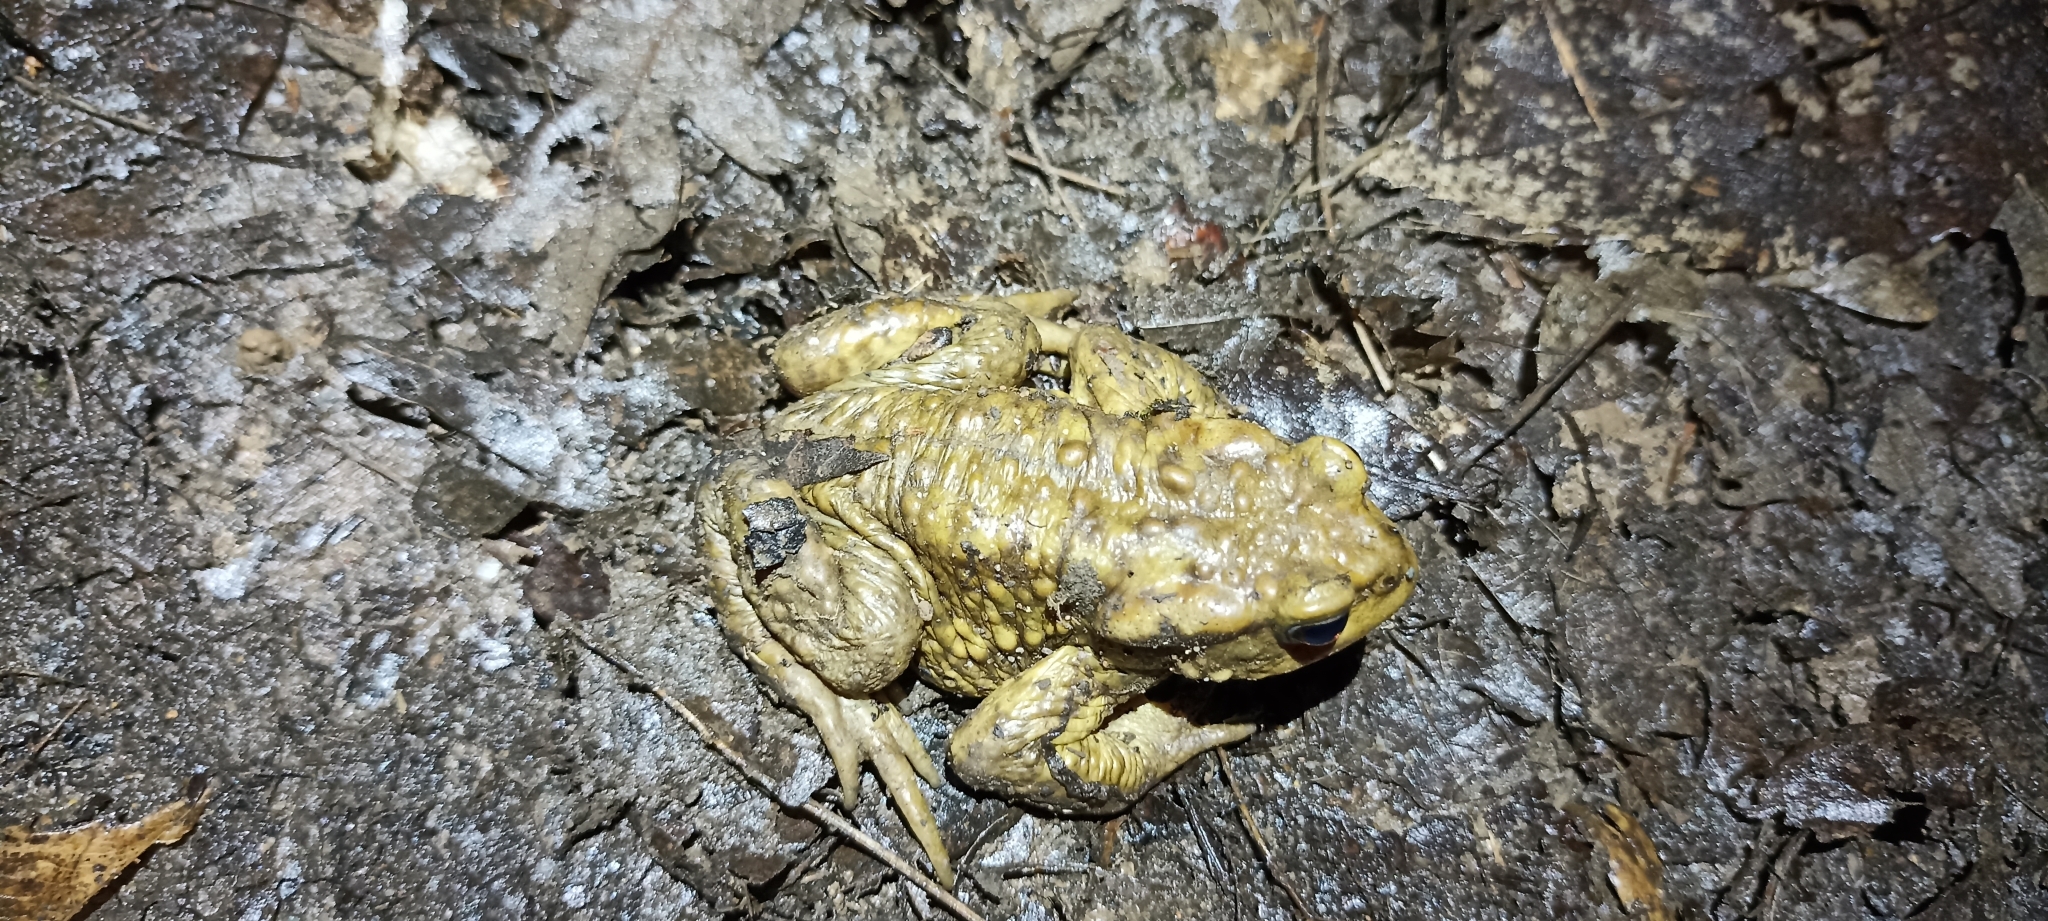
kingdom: Animalia
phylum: Chordata
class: Amphibia
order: Anura
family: Bufonidae
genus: Bufo
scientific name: Bufo spinosus
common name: Western common toad
